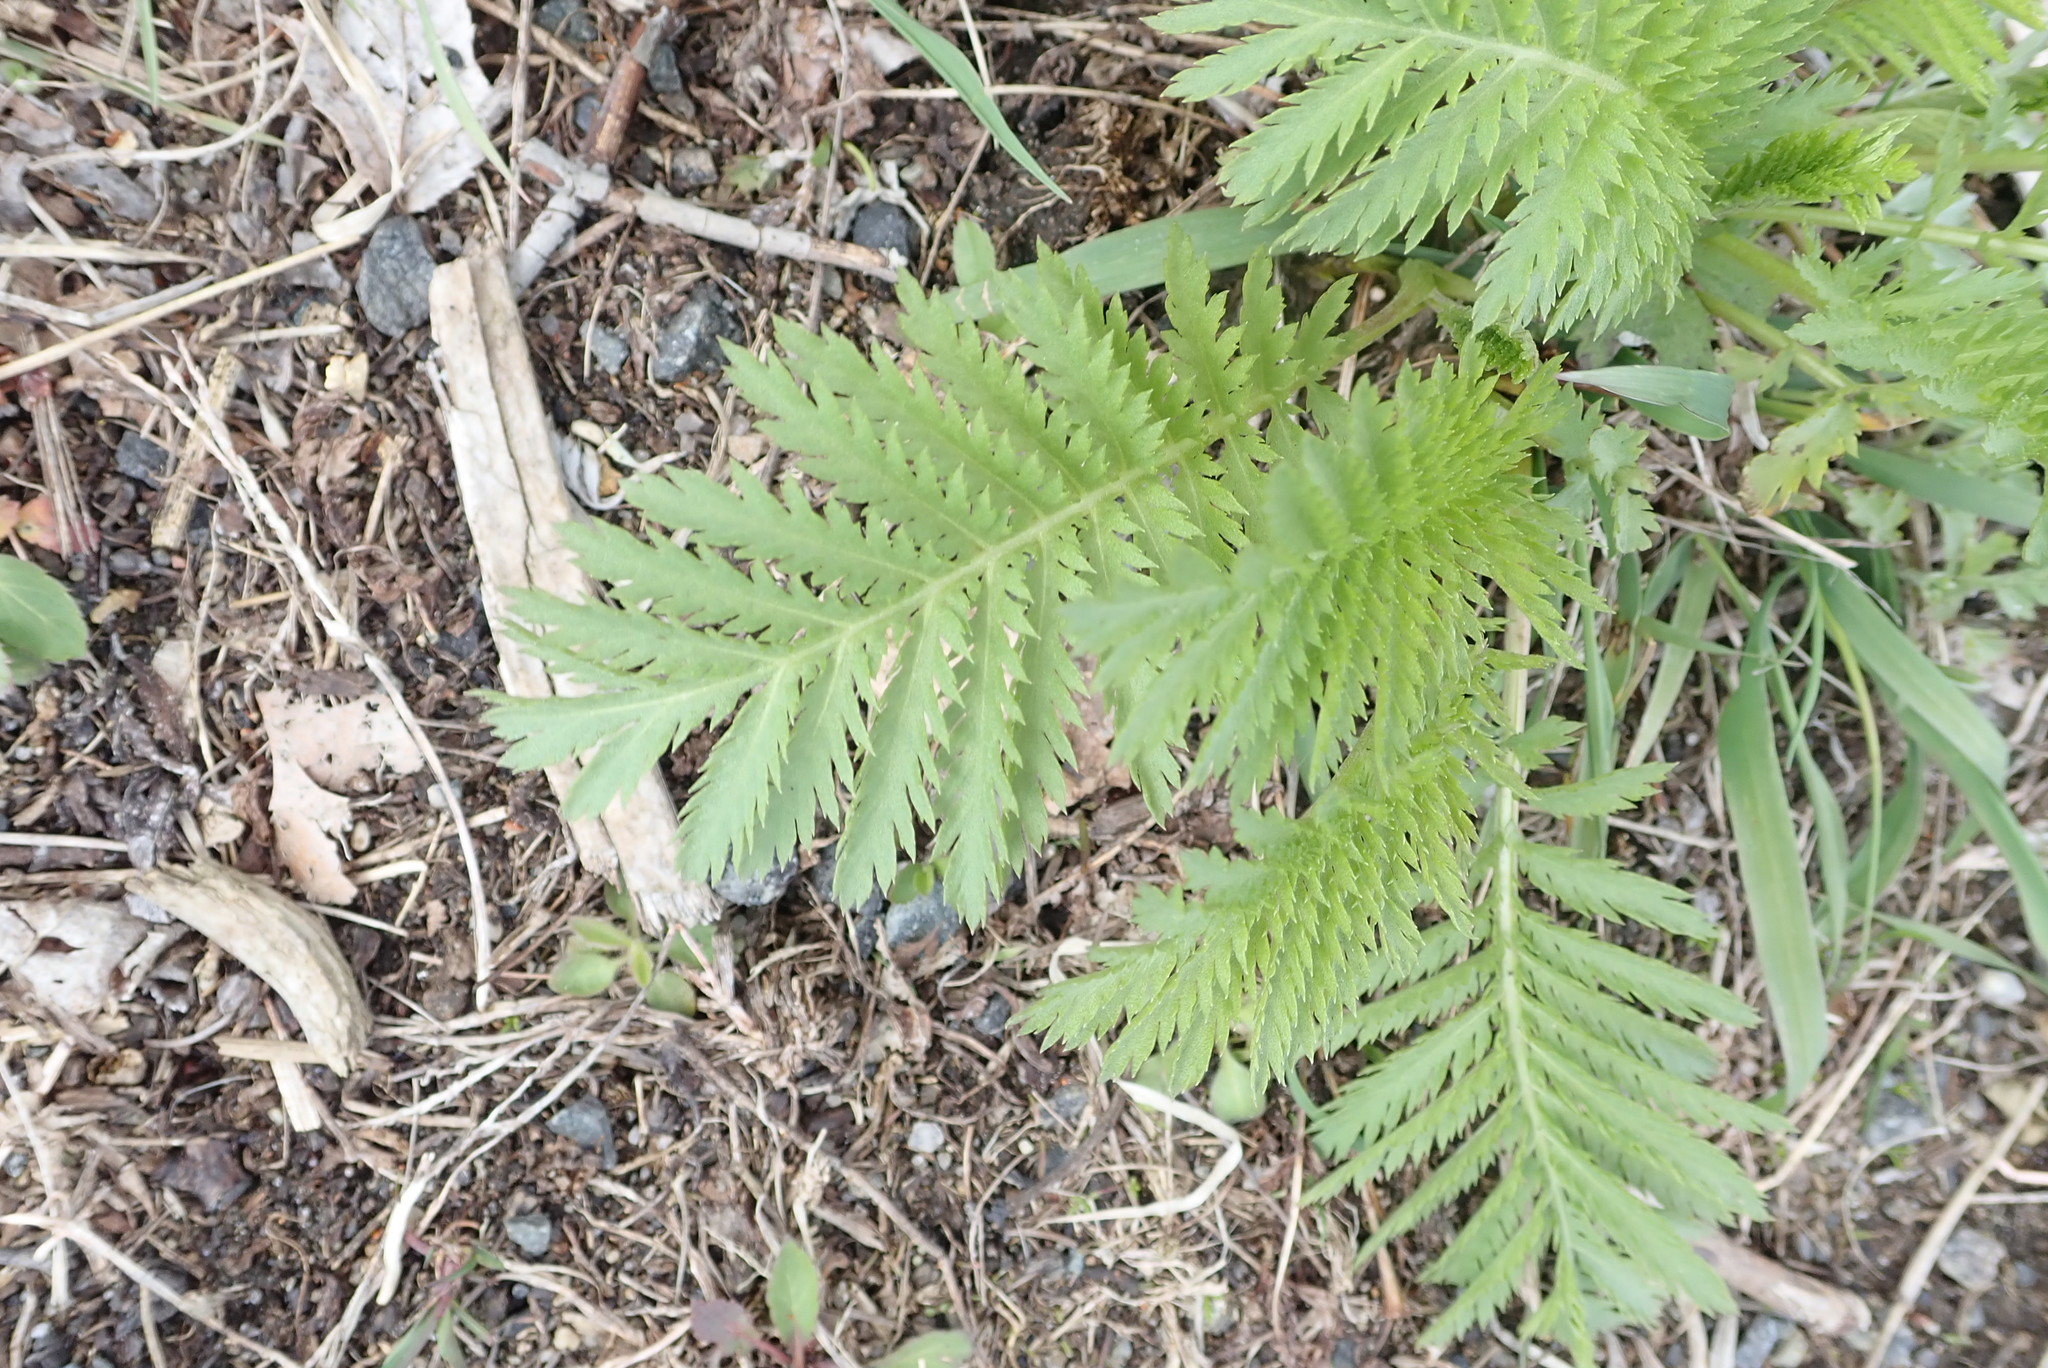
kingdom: Plantae
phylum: Tracheophyta
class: Magnoliopsida
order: Asterales
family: Asteraceae
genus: Tanacetum
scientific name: Tanacetum vulgare
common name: Common tansy
